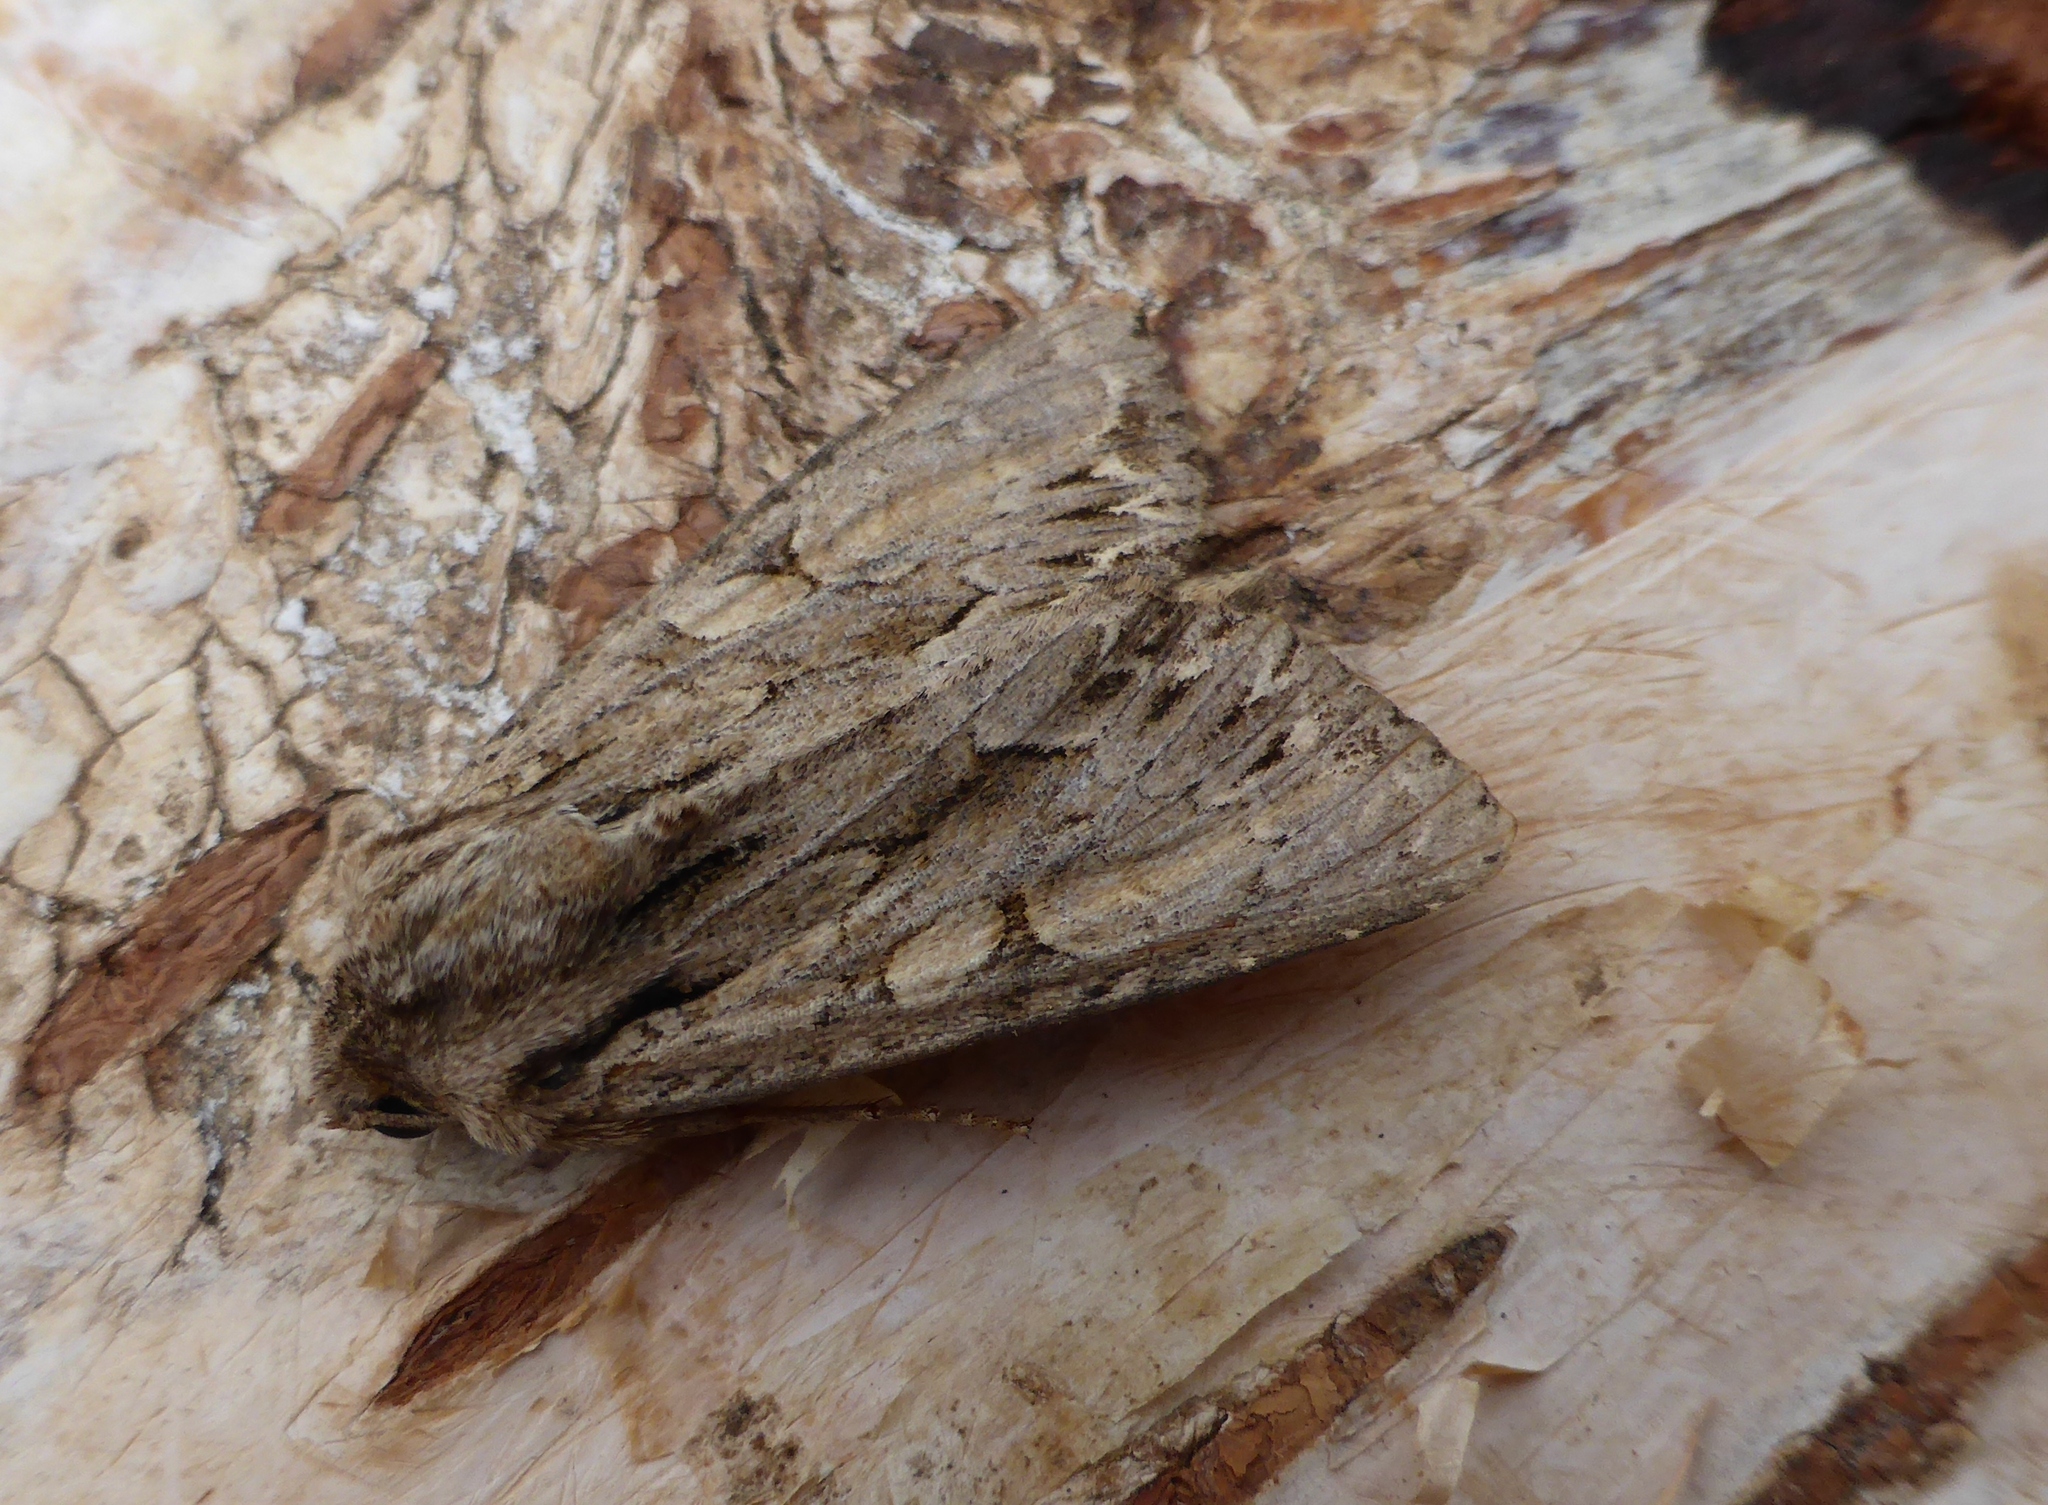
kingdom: Animalia
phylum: Arthropoda
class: Insecta
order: Lepidoptera
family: Noctuidae
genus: Apamea
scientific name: Apamea monoglypha
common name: Dark arches
